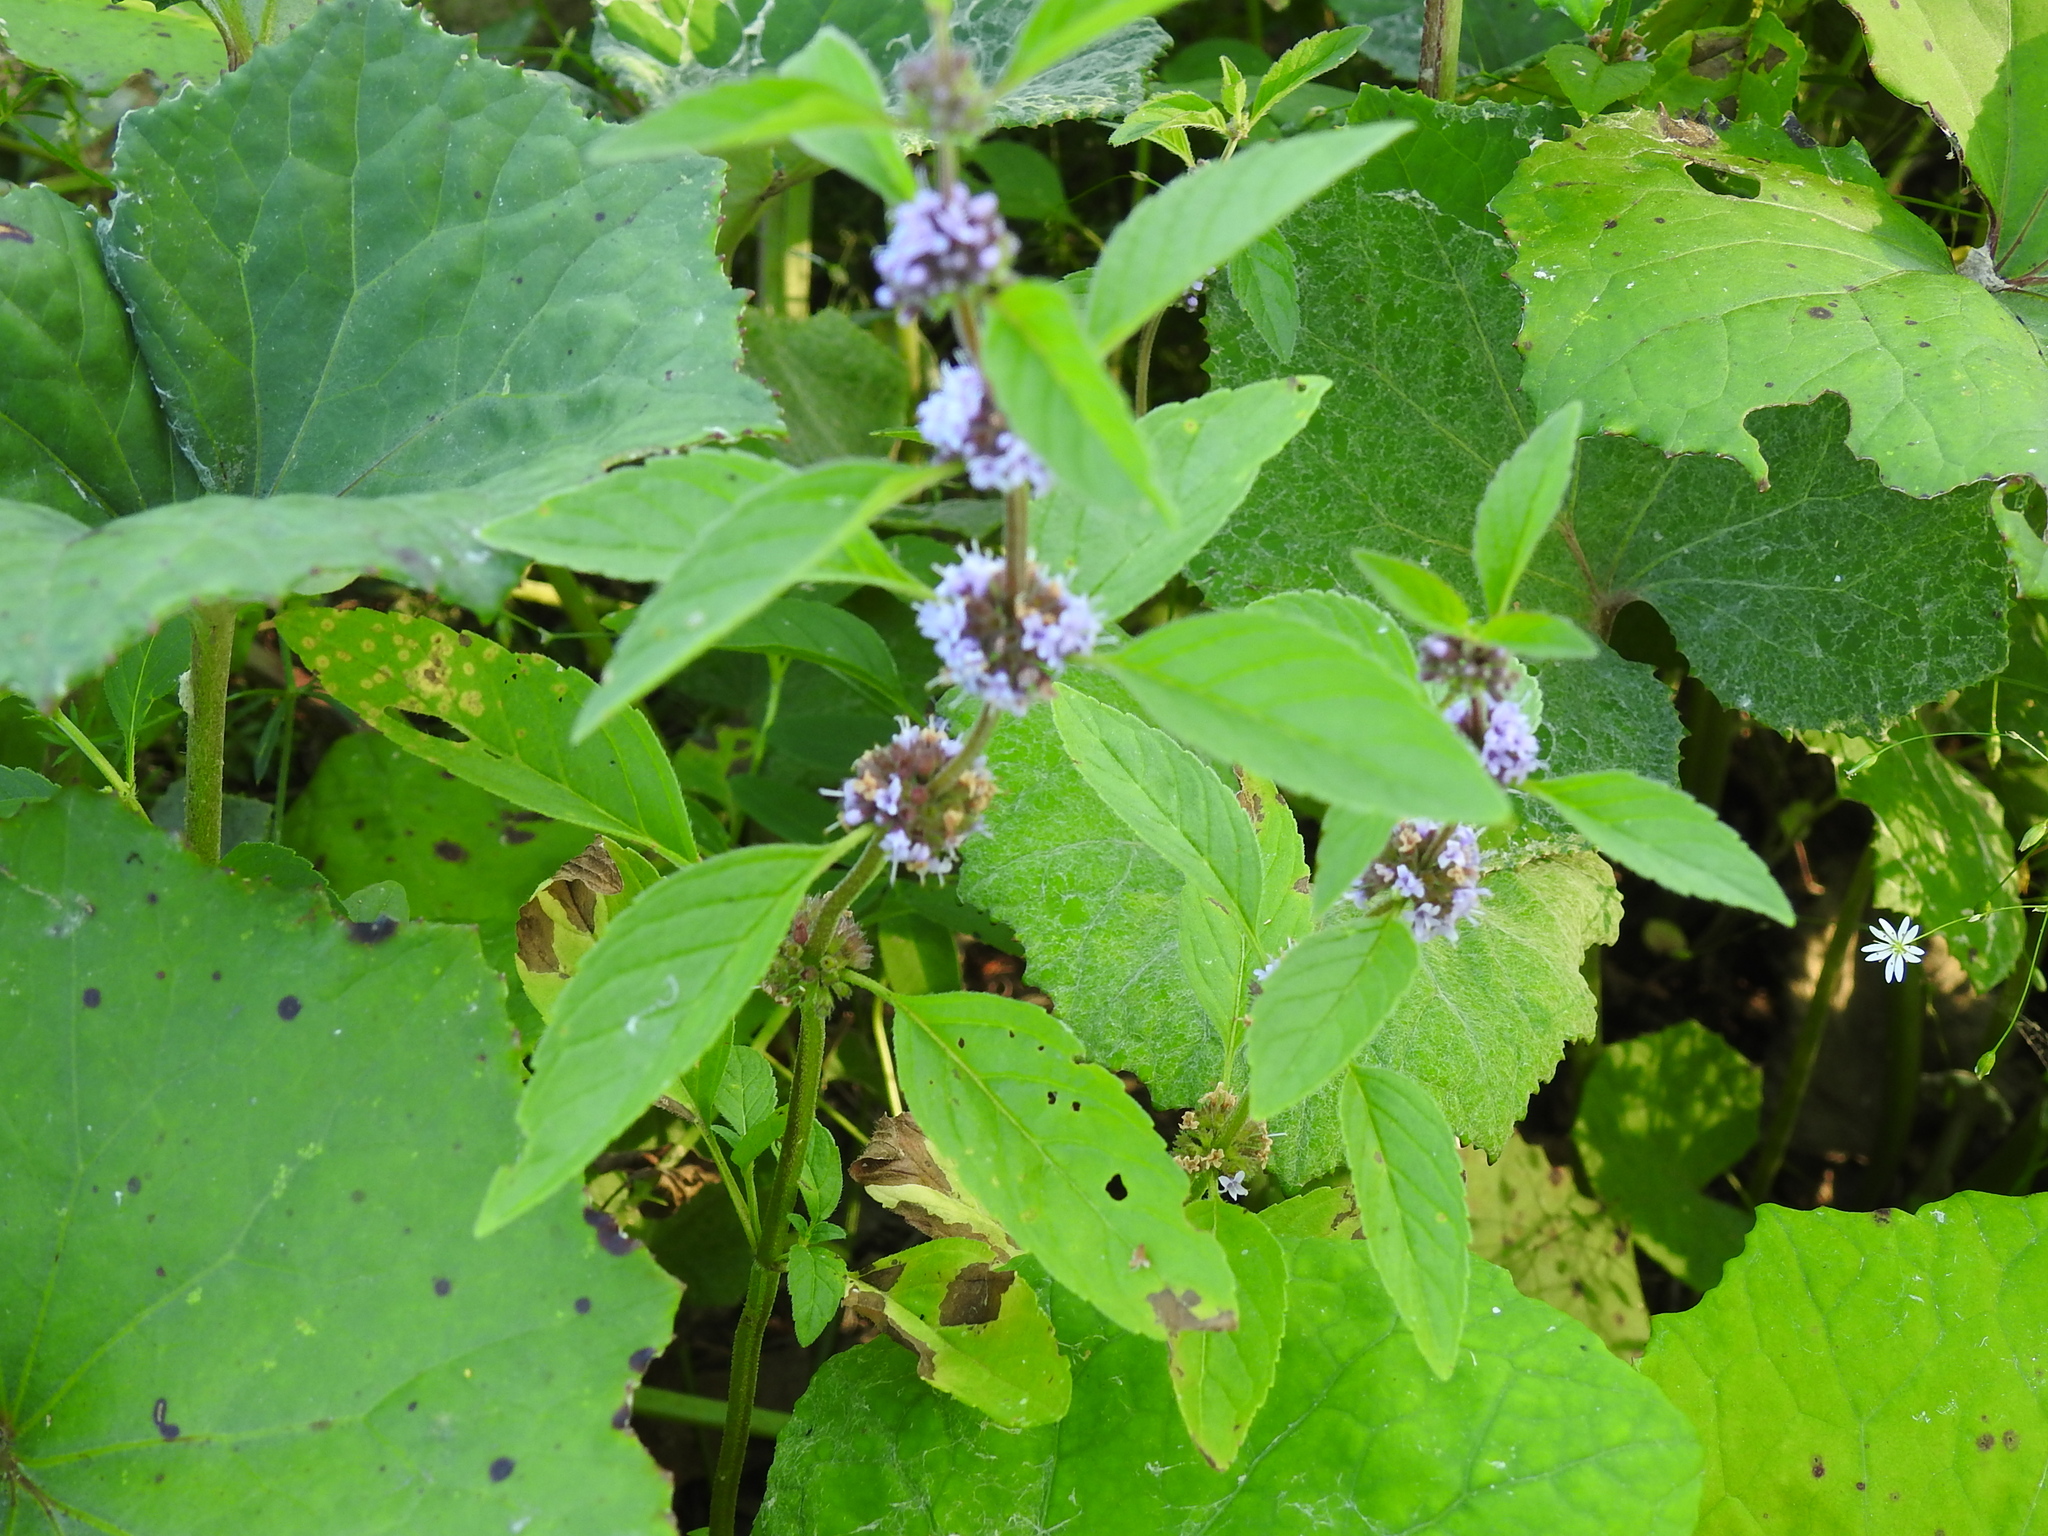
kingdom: Plantae
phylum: Tracheophyta
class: Magnoliopsida
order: Lamiales
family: Lamiaceae
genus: Mentha
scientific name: Mentha arvensis
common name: Corn mint
